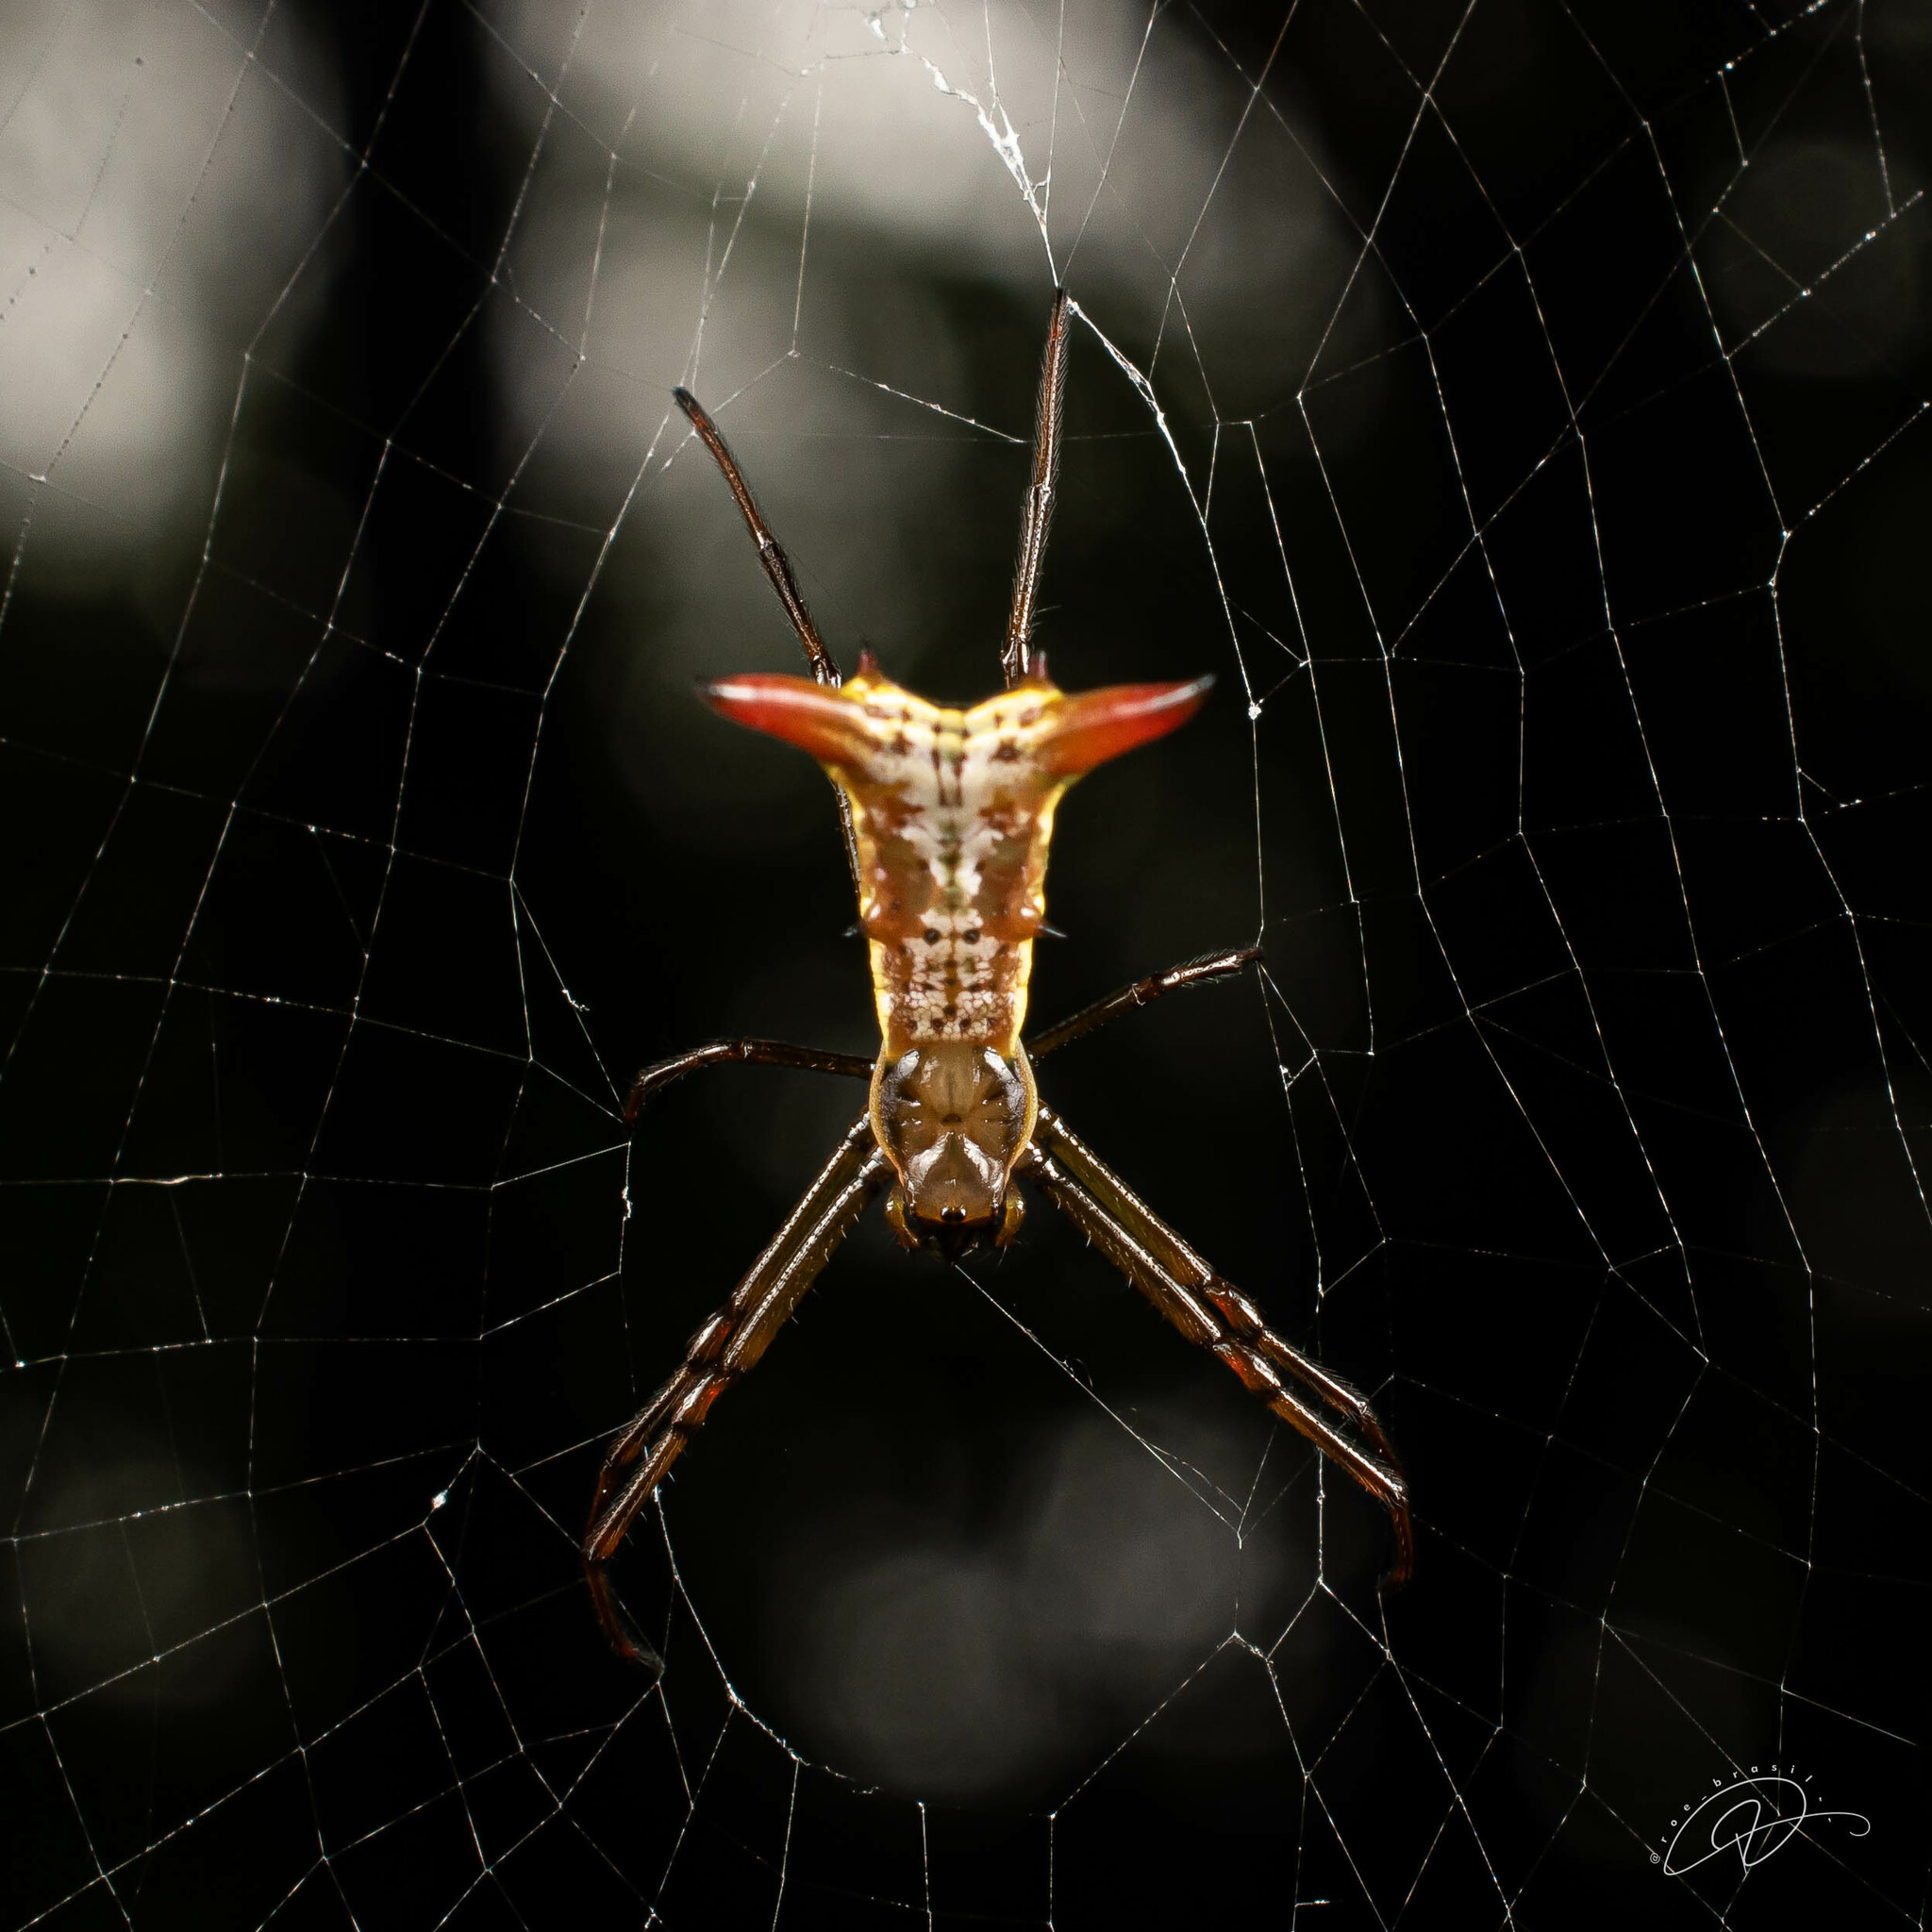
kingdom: Animalia
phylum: Arthropoda
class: Arachnida
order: Araneae
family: Araneidae
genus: Micrathena
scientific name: Micrathena crassispina
